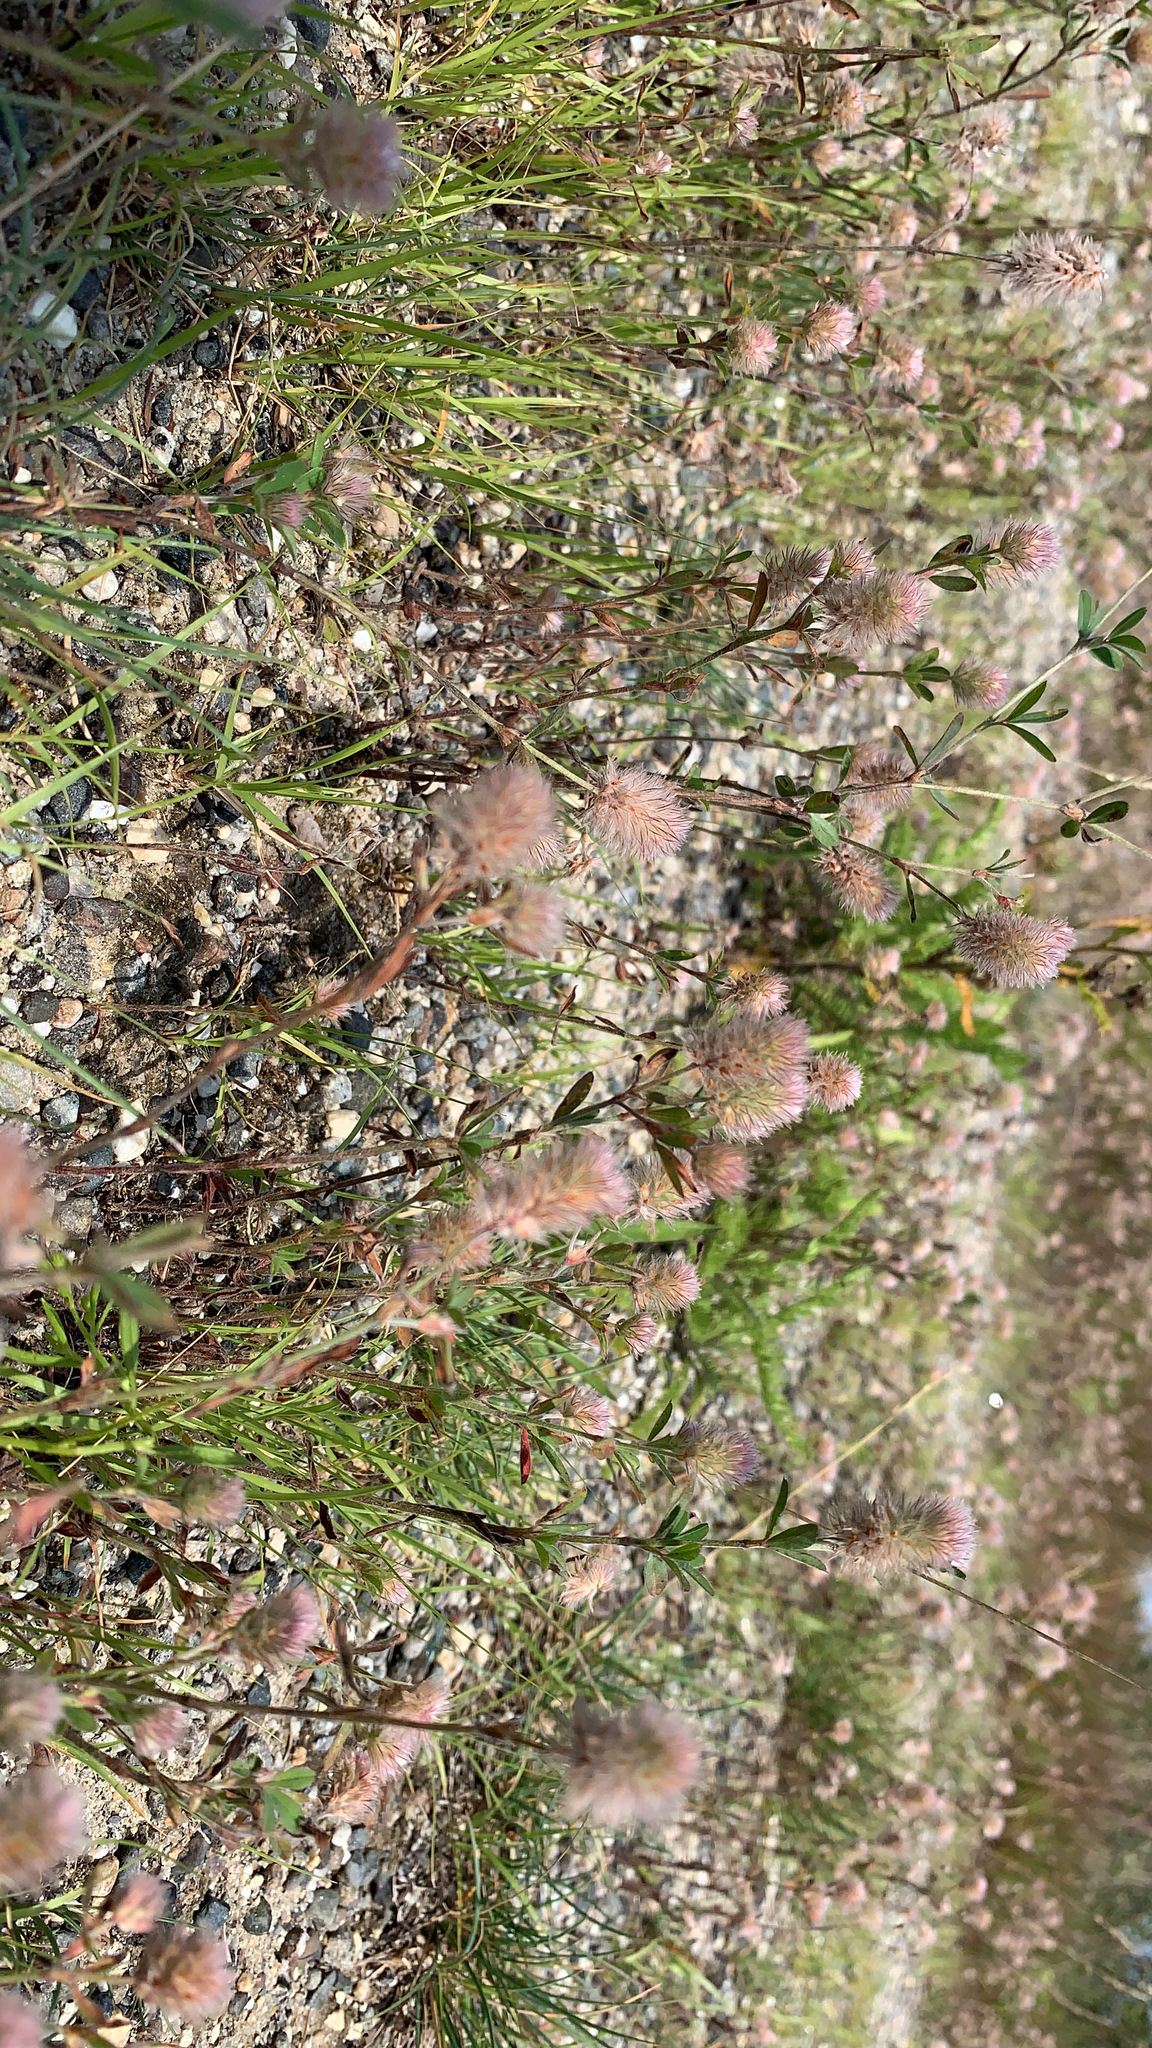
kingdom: Plantae
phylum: Tracheophyta
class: Magnoliopsida
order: Fabales
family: Fabaceae
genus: Trifolium
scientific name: Trifolium arvense
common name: Hare's-foot clover
